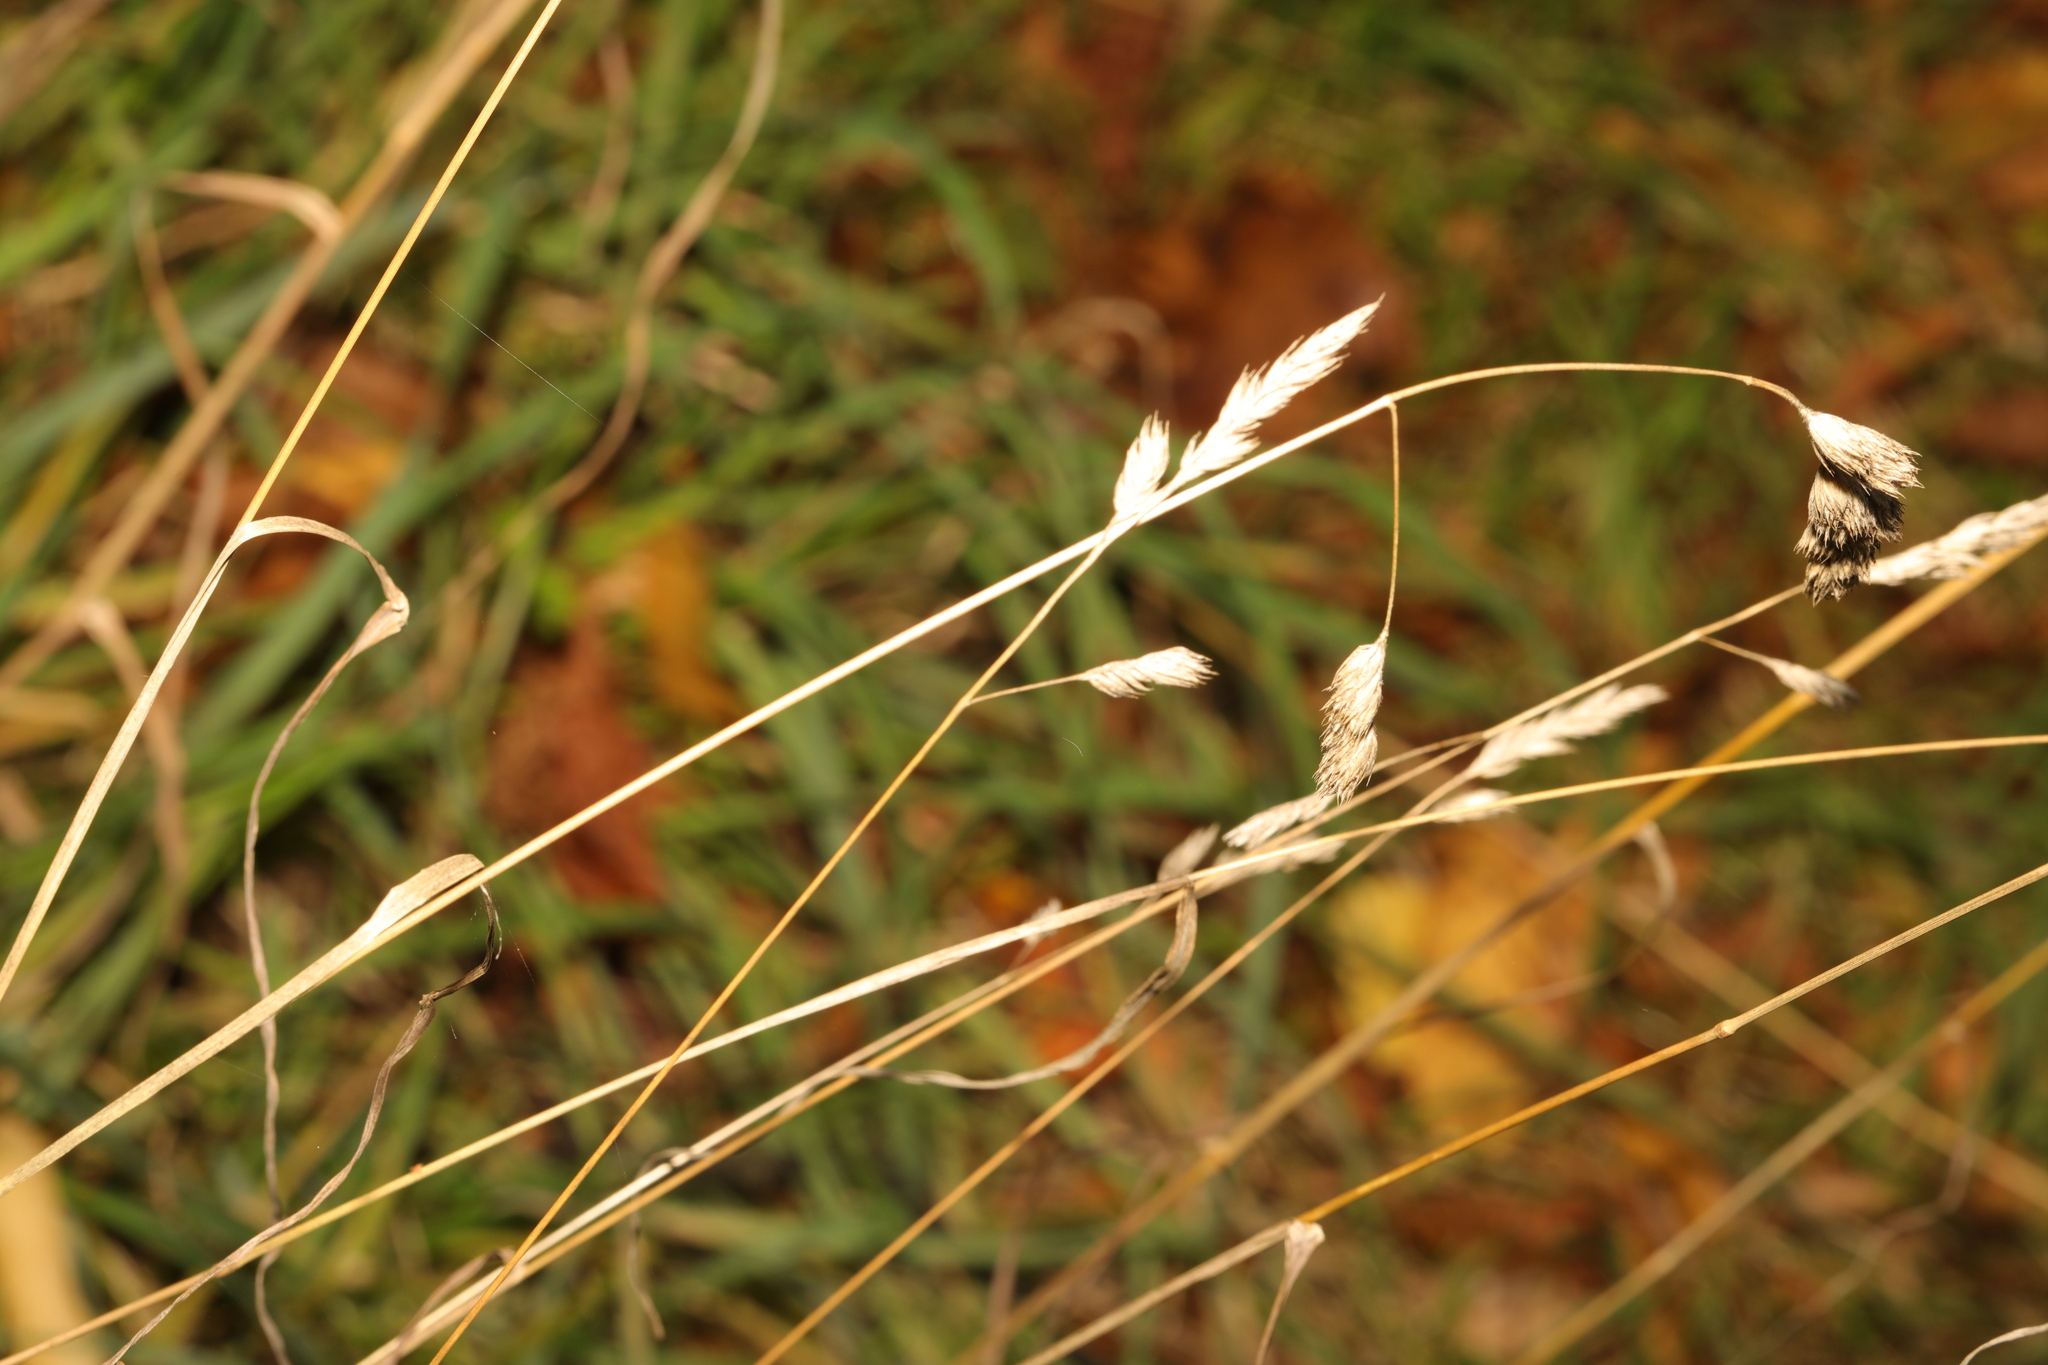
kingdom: Plantae
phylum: Tracheophyta
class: Liliopsida
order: Poales
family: Poaceae
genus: Dactylis
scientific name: Dactylis glomerata
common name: Orchardgrass
